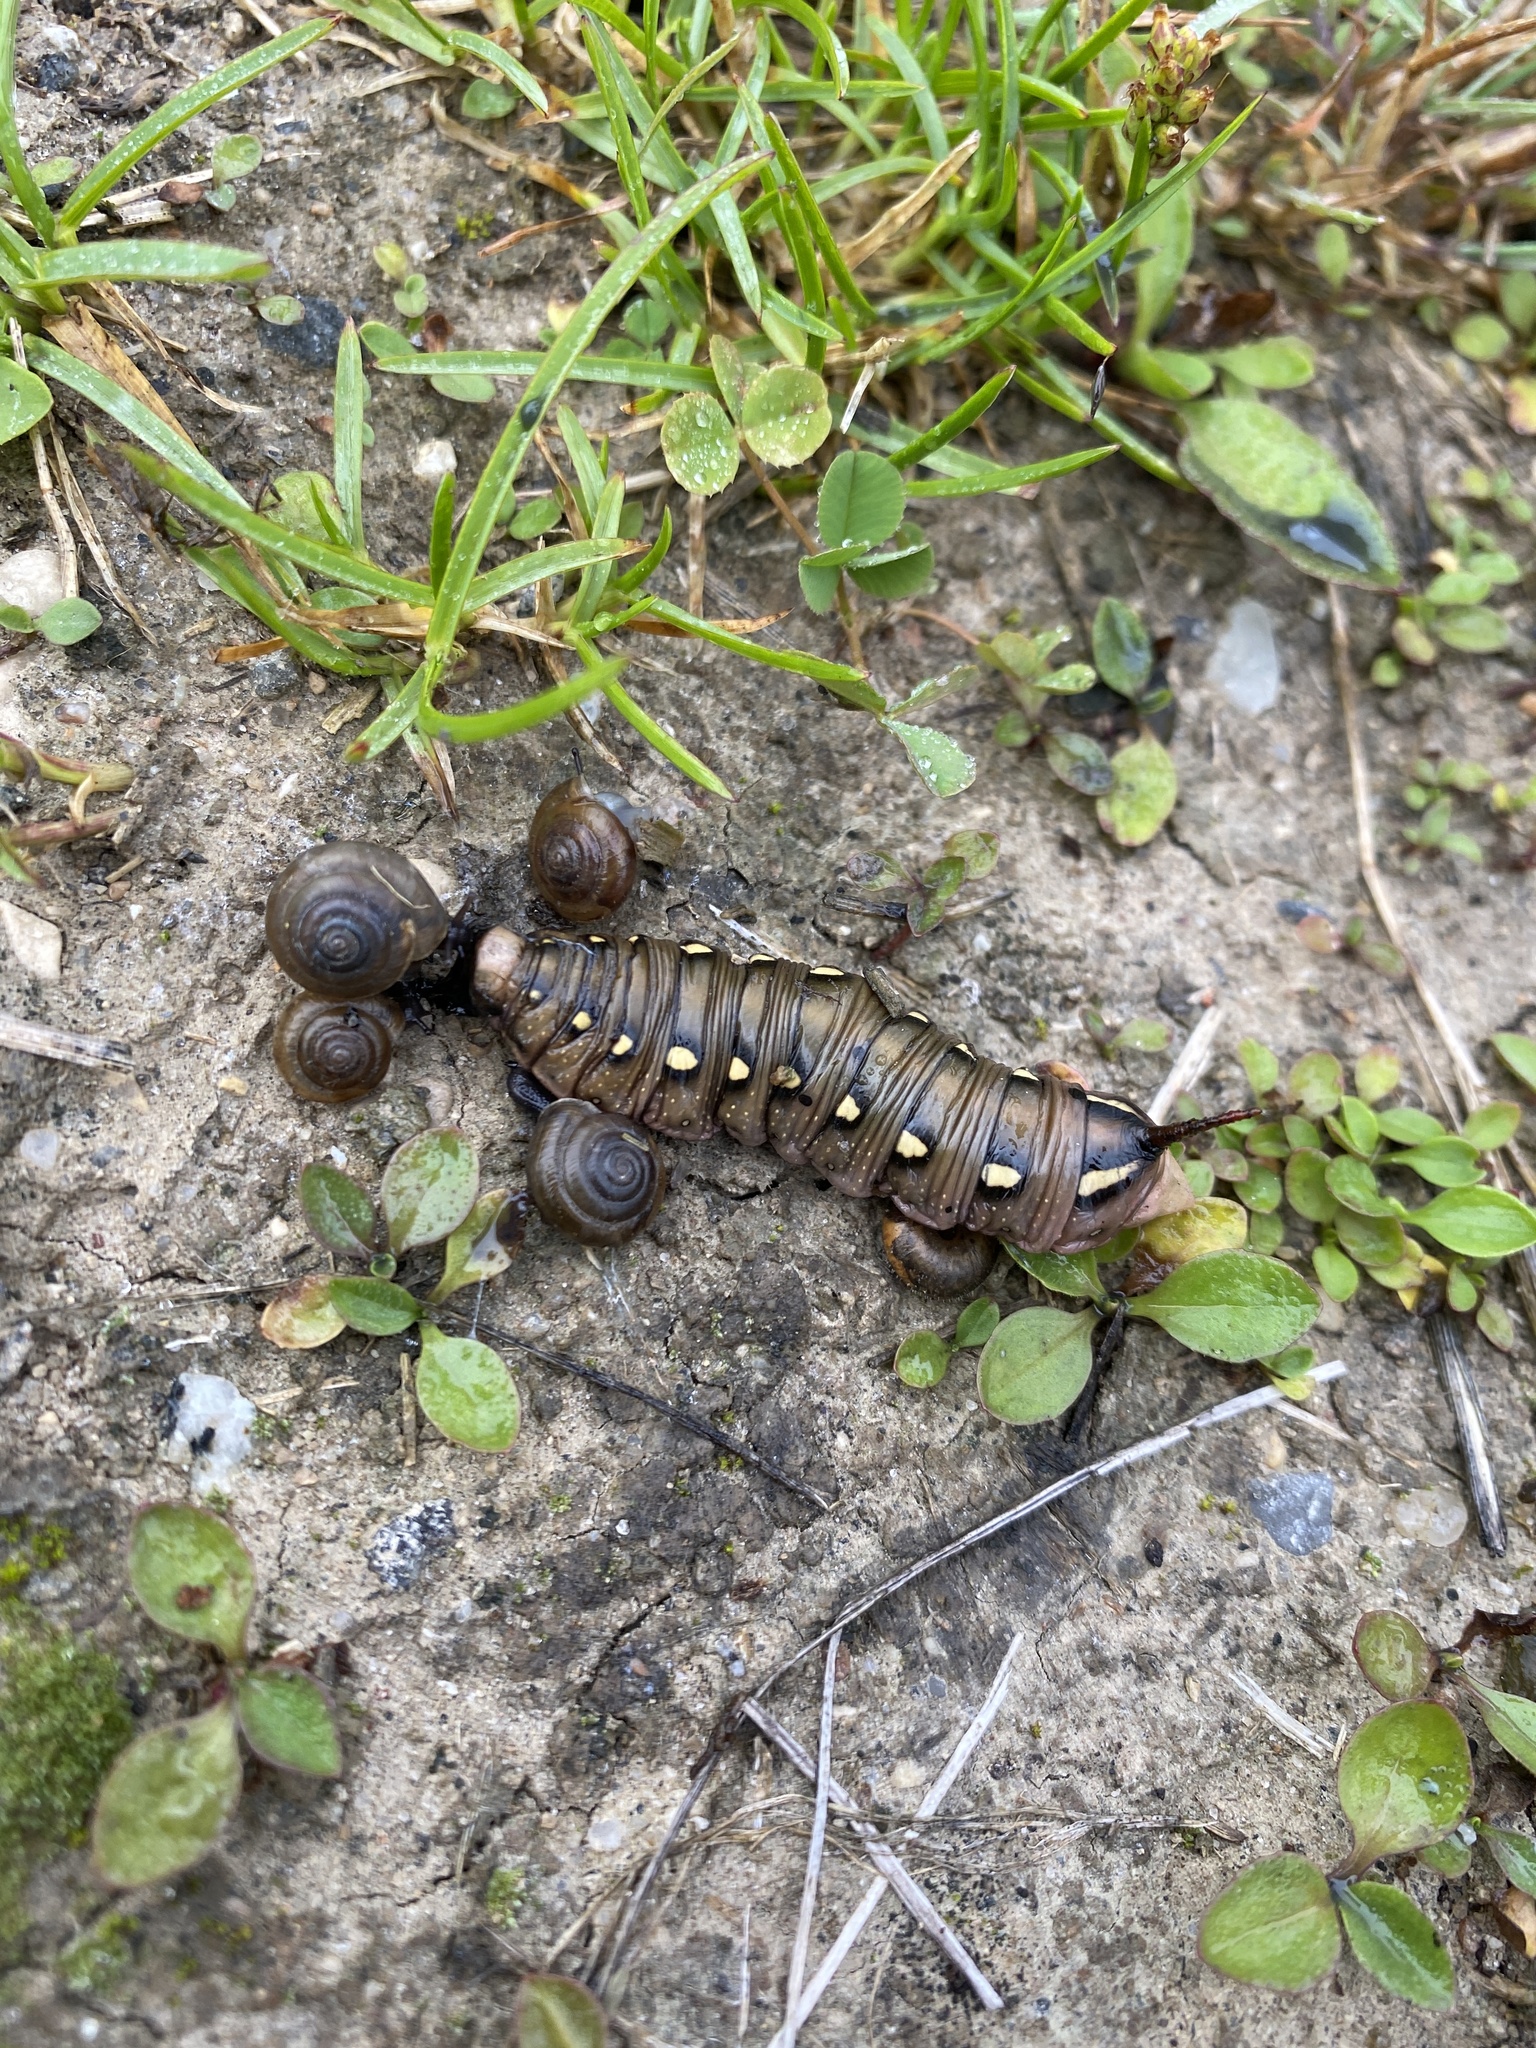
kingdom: Animalia
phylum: Arthropoda
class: Insecta
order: Lepidoptera
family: Sphingidae
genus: Hyles
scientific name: Hyles gallii
